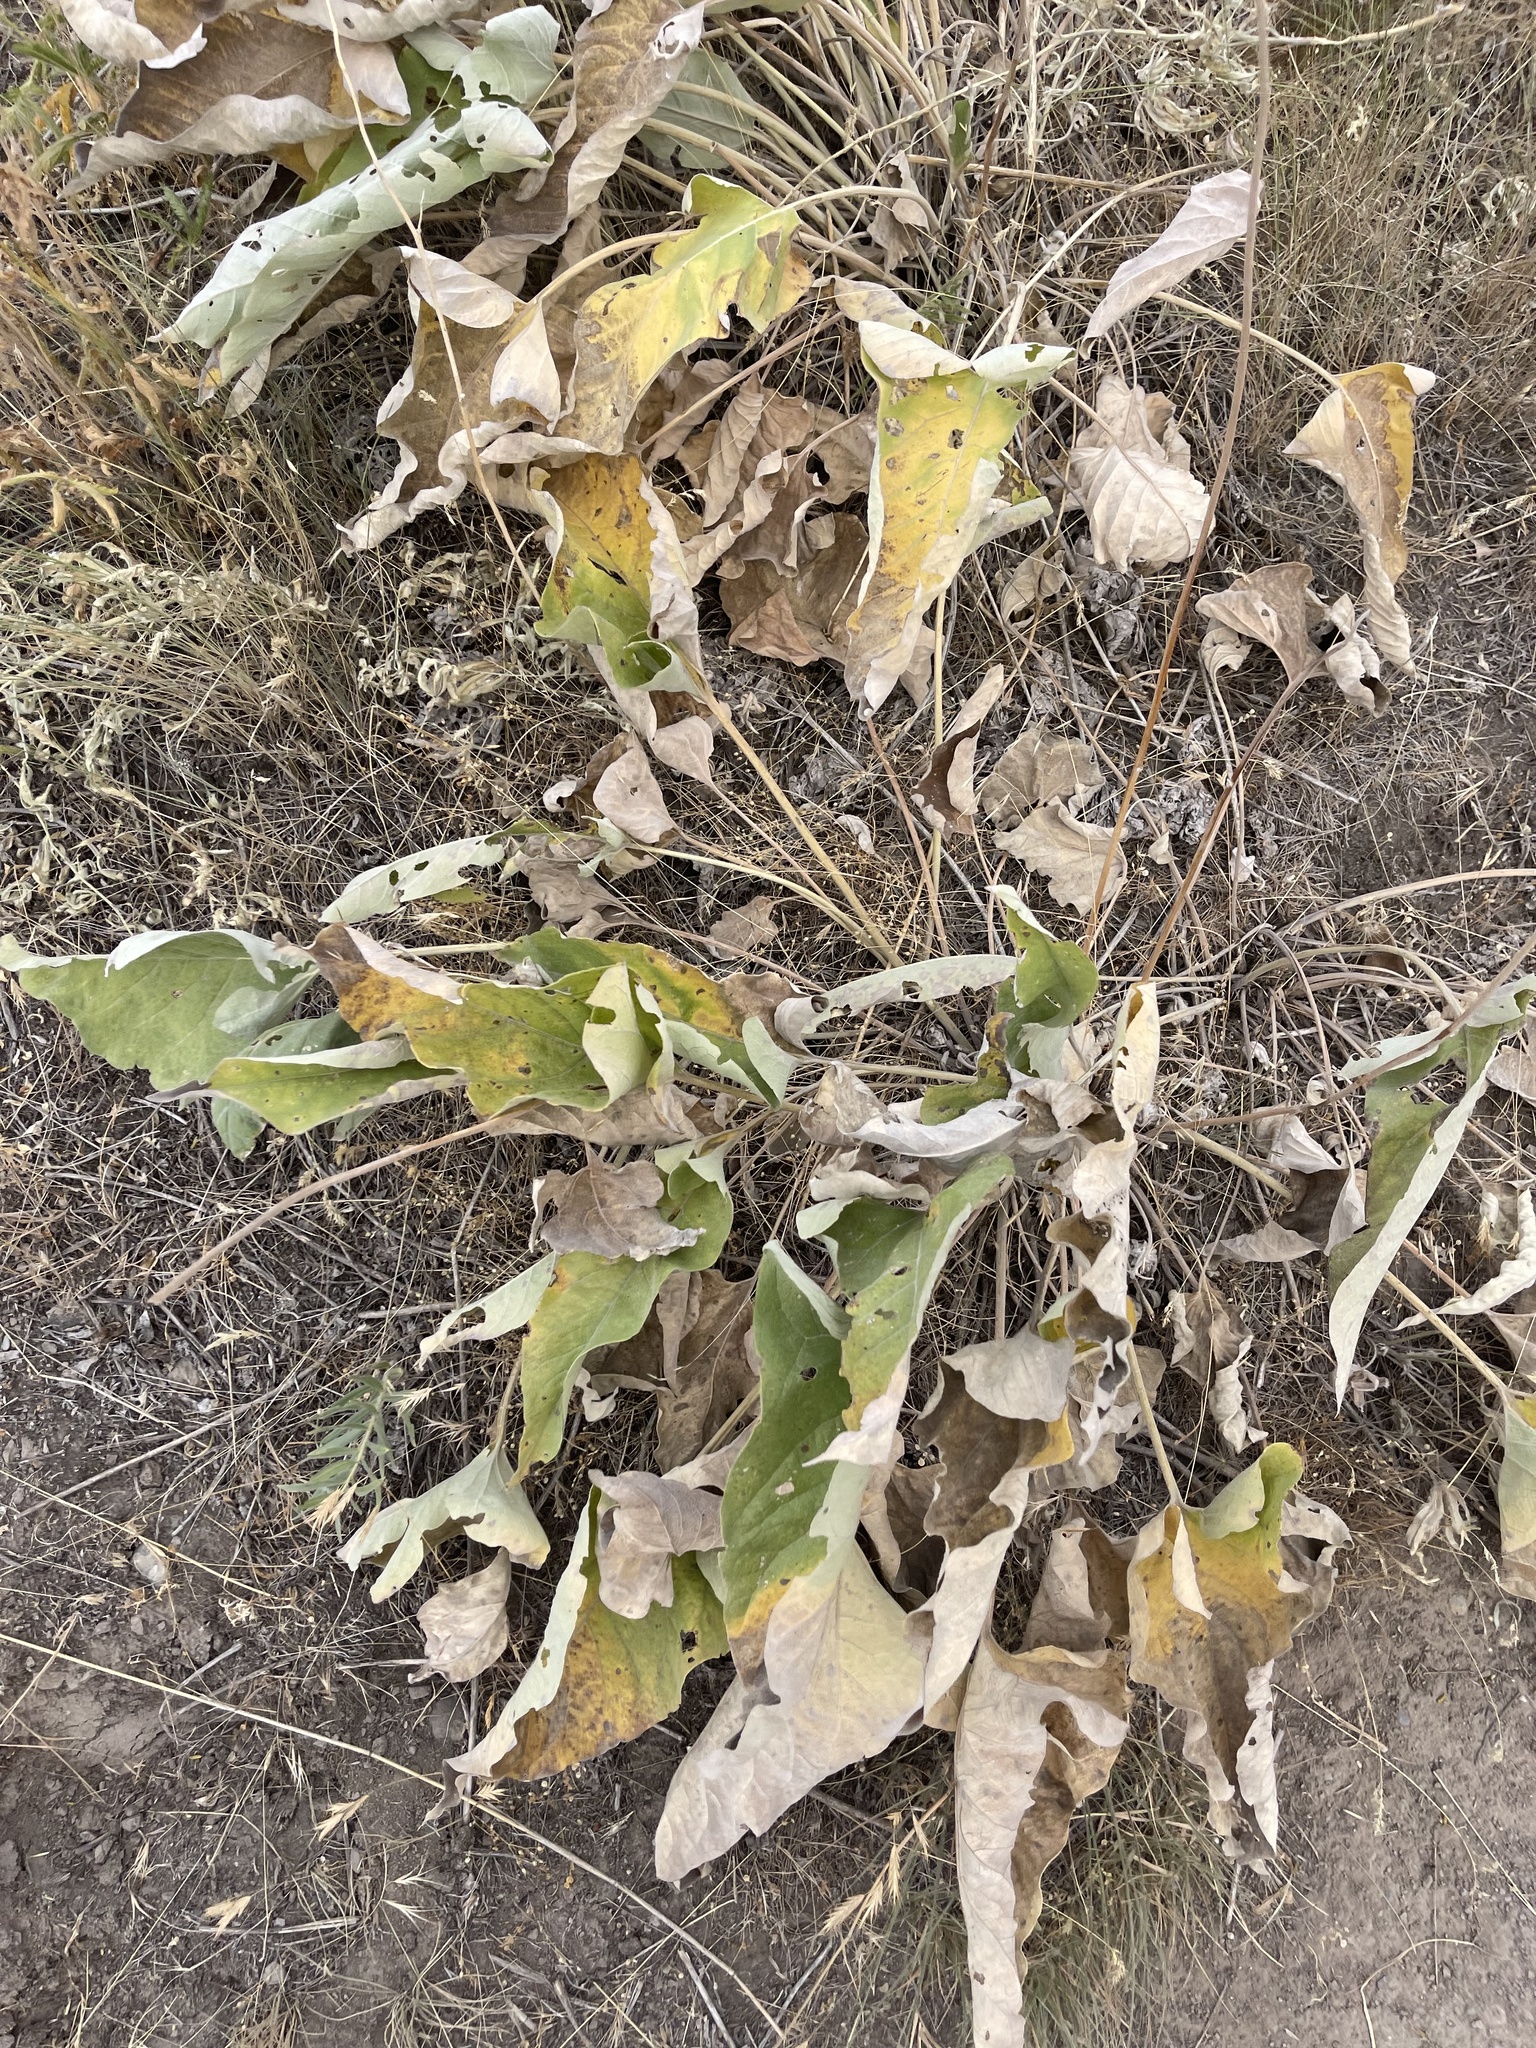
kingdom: Plantae
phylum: Tracheophyta
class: Magnoliopsida
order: Asterales
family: Asteraceae
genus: Wyethia
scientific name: Wyethia sagittata
